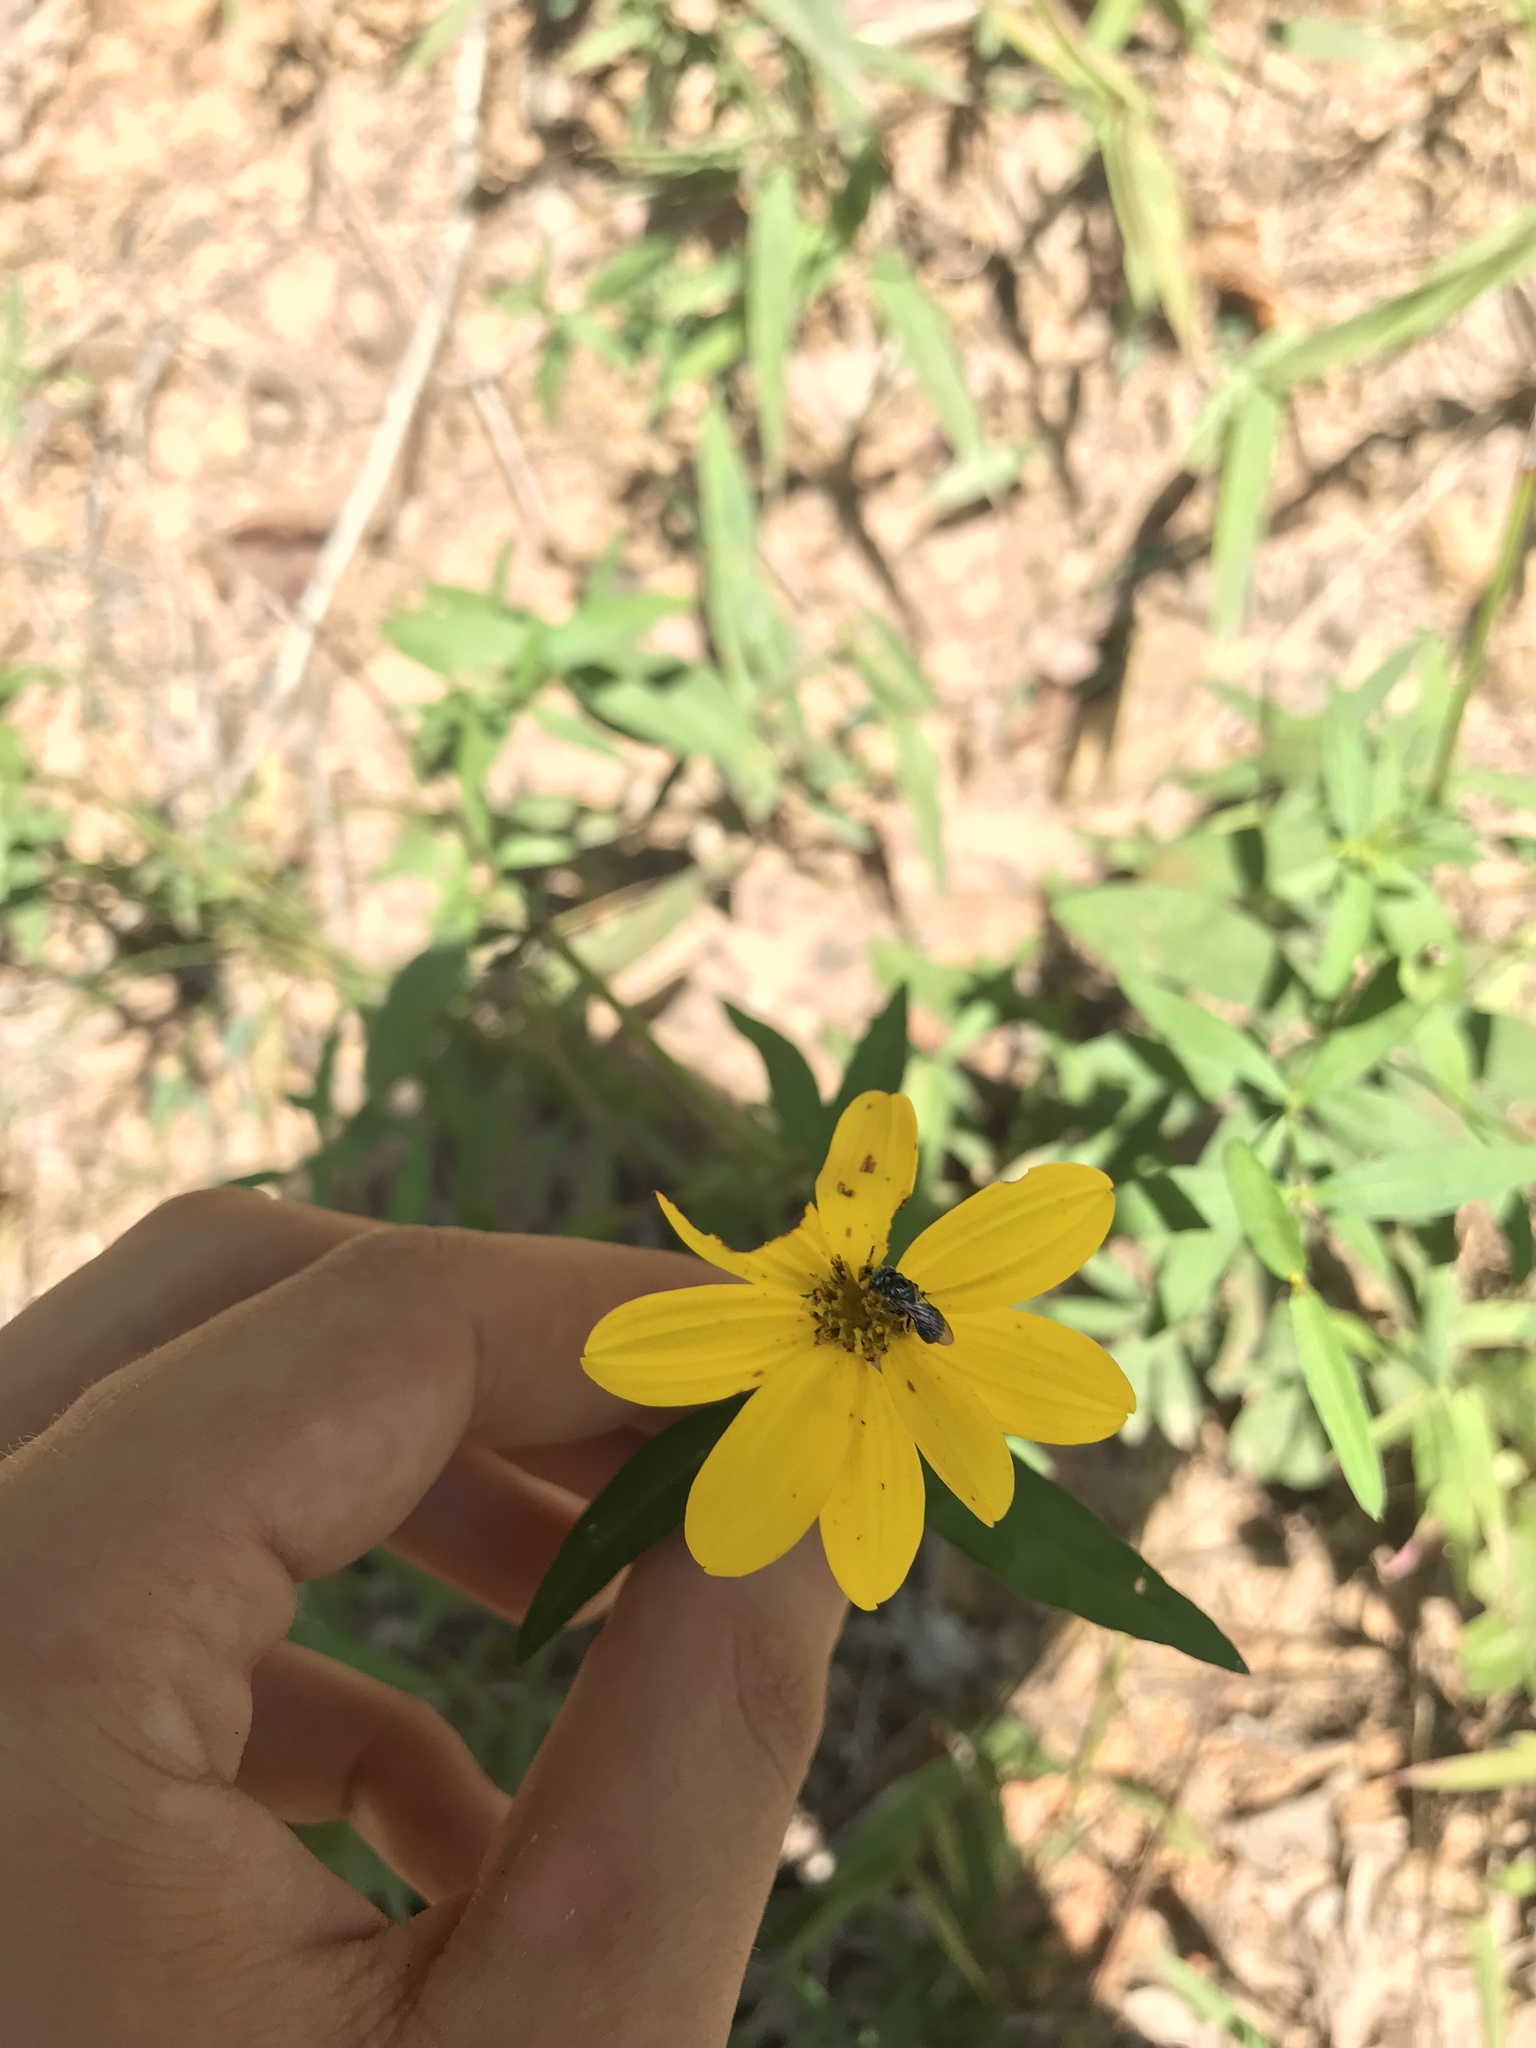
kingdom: Plantae
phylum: Tracheophyta
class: Magnoliopsida
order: Asterales
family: Asteraceae
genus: Coreopsis
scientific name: Coreopsis major
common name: Forest tickseed
